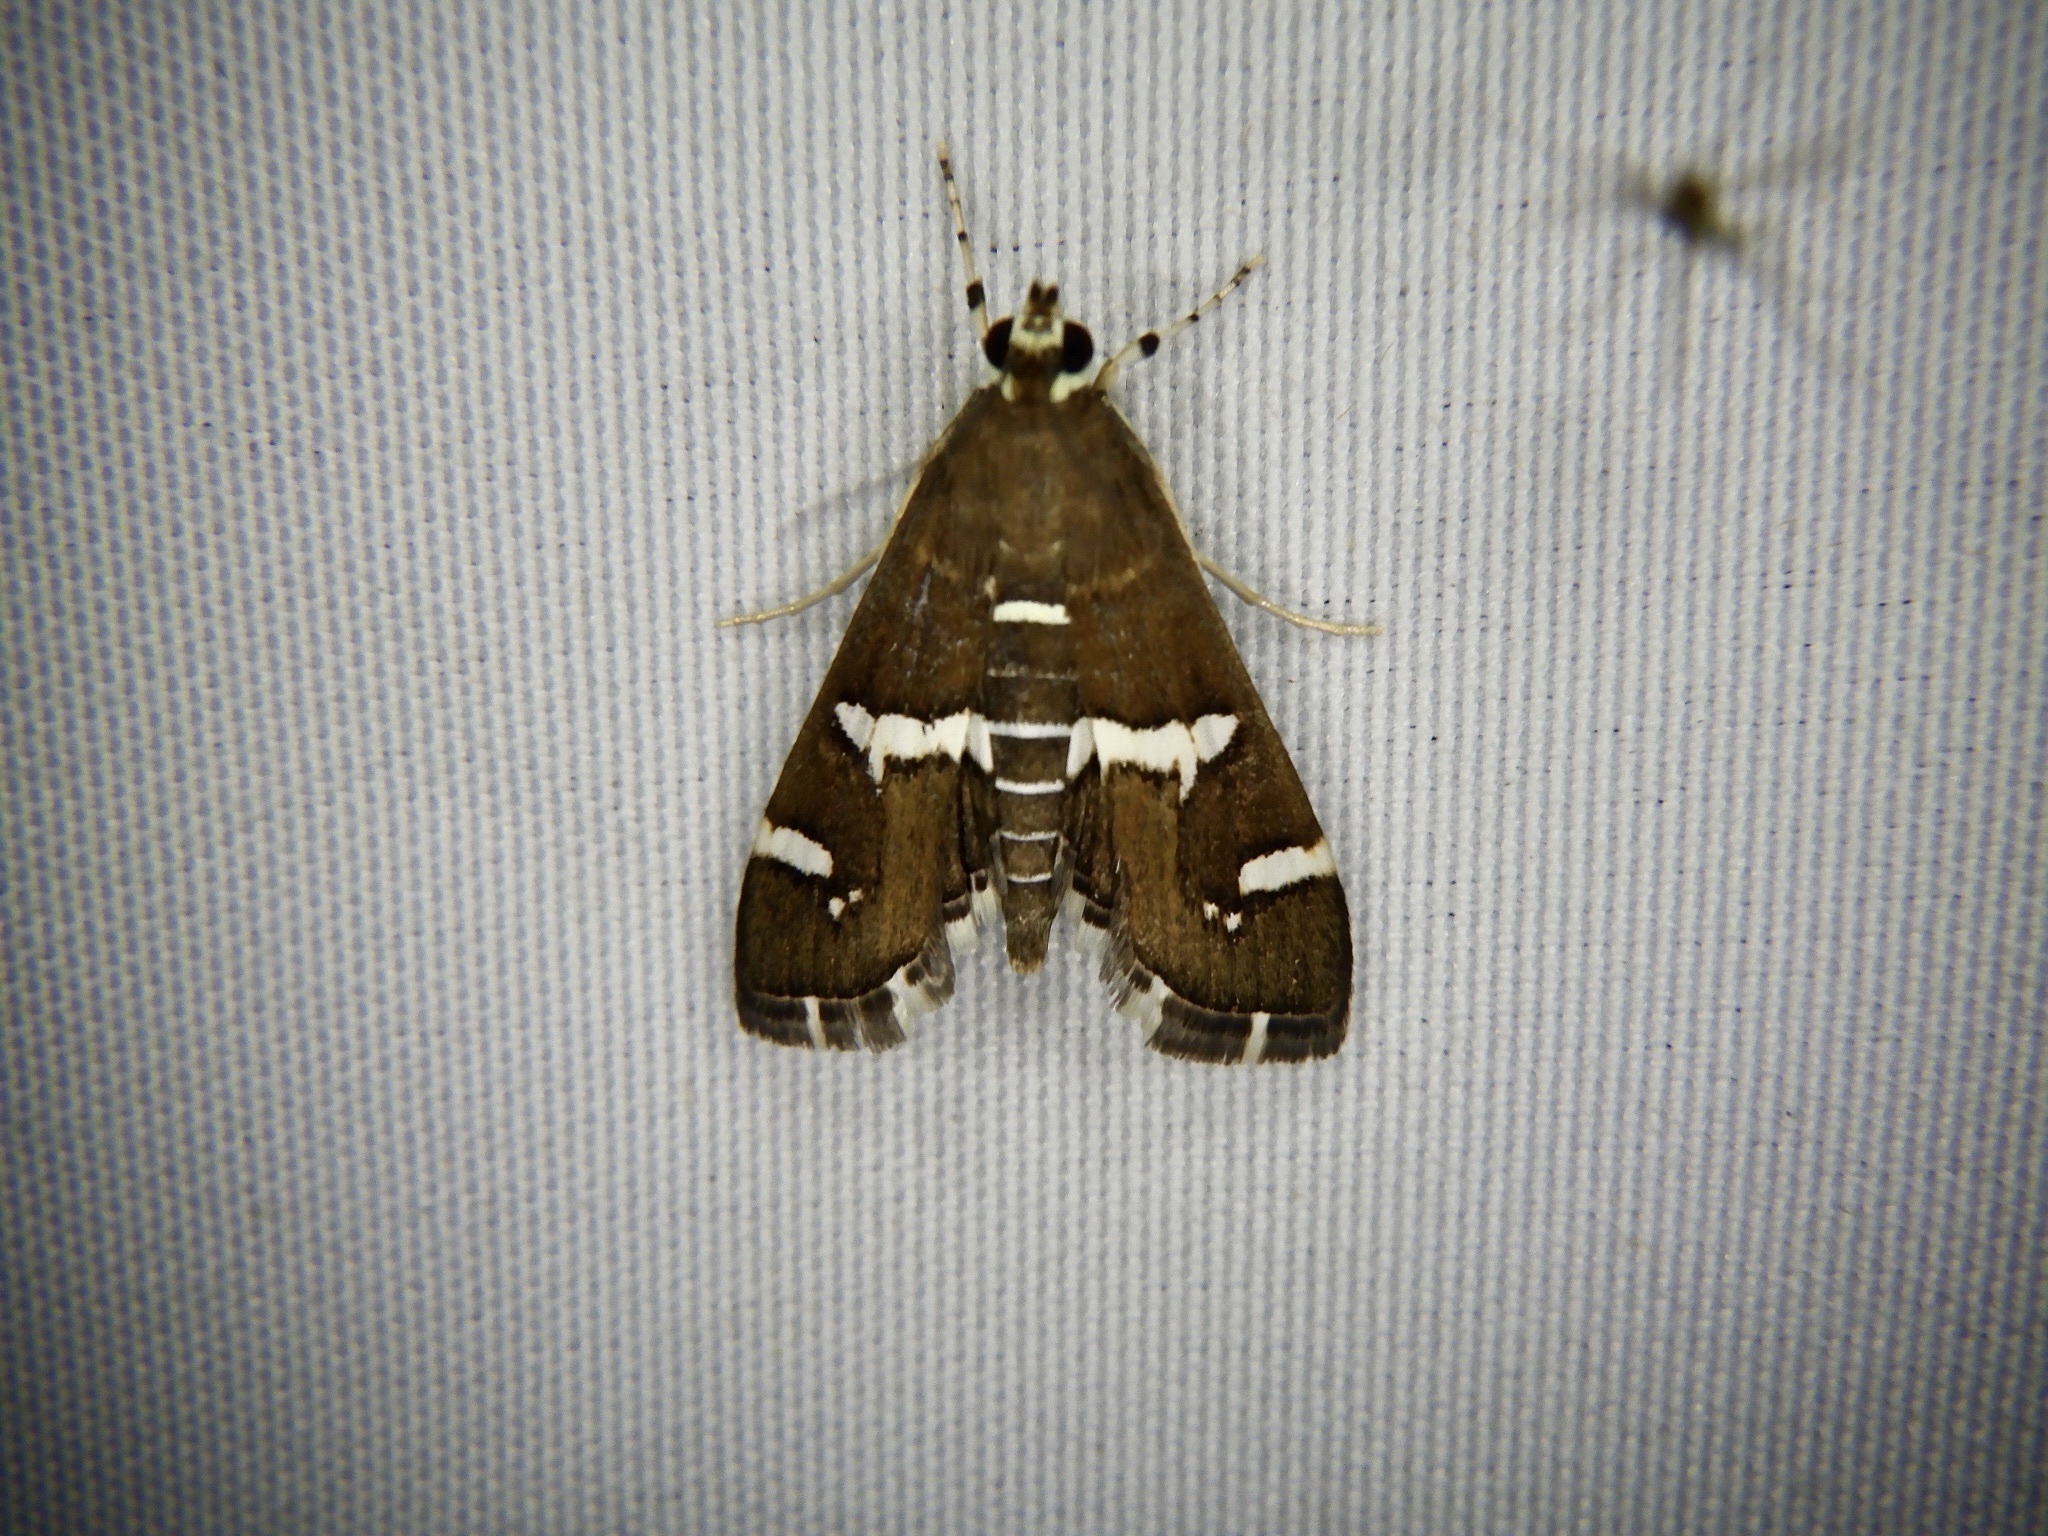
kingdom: Animalia
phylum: Arthropoda
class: Insecta
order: Lepidoptera
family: Crambidae
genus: Spoladea
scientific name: Spoladea recurvalis
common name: Beet webworm moth
